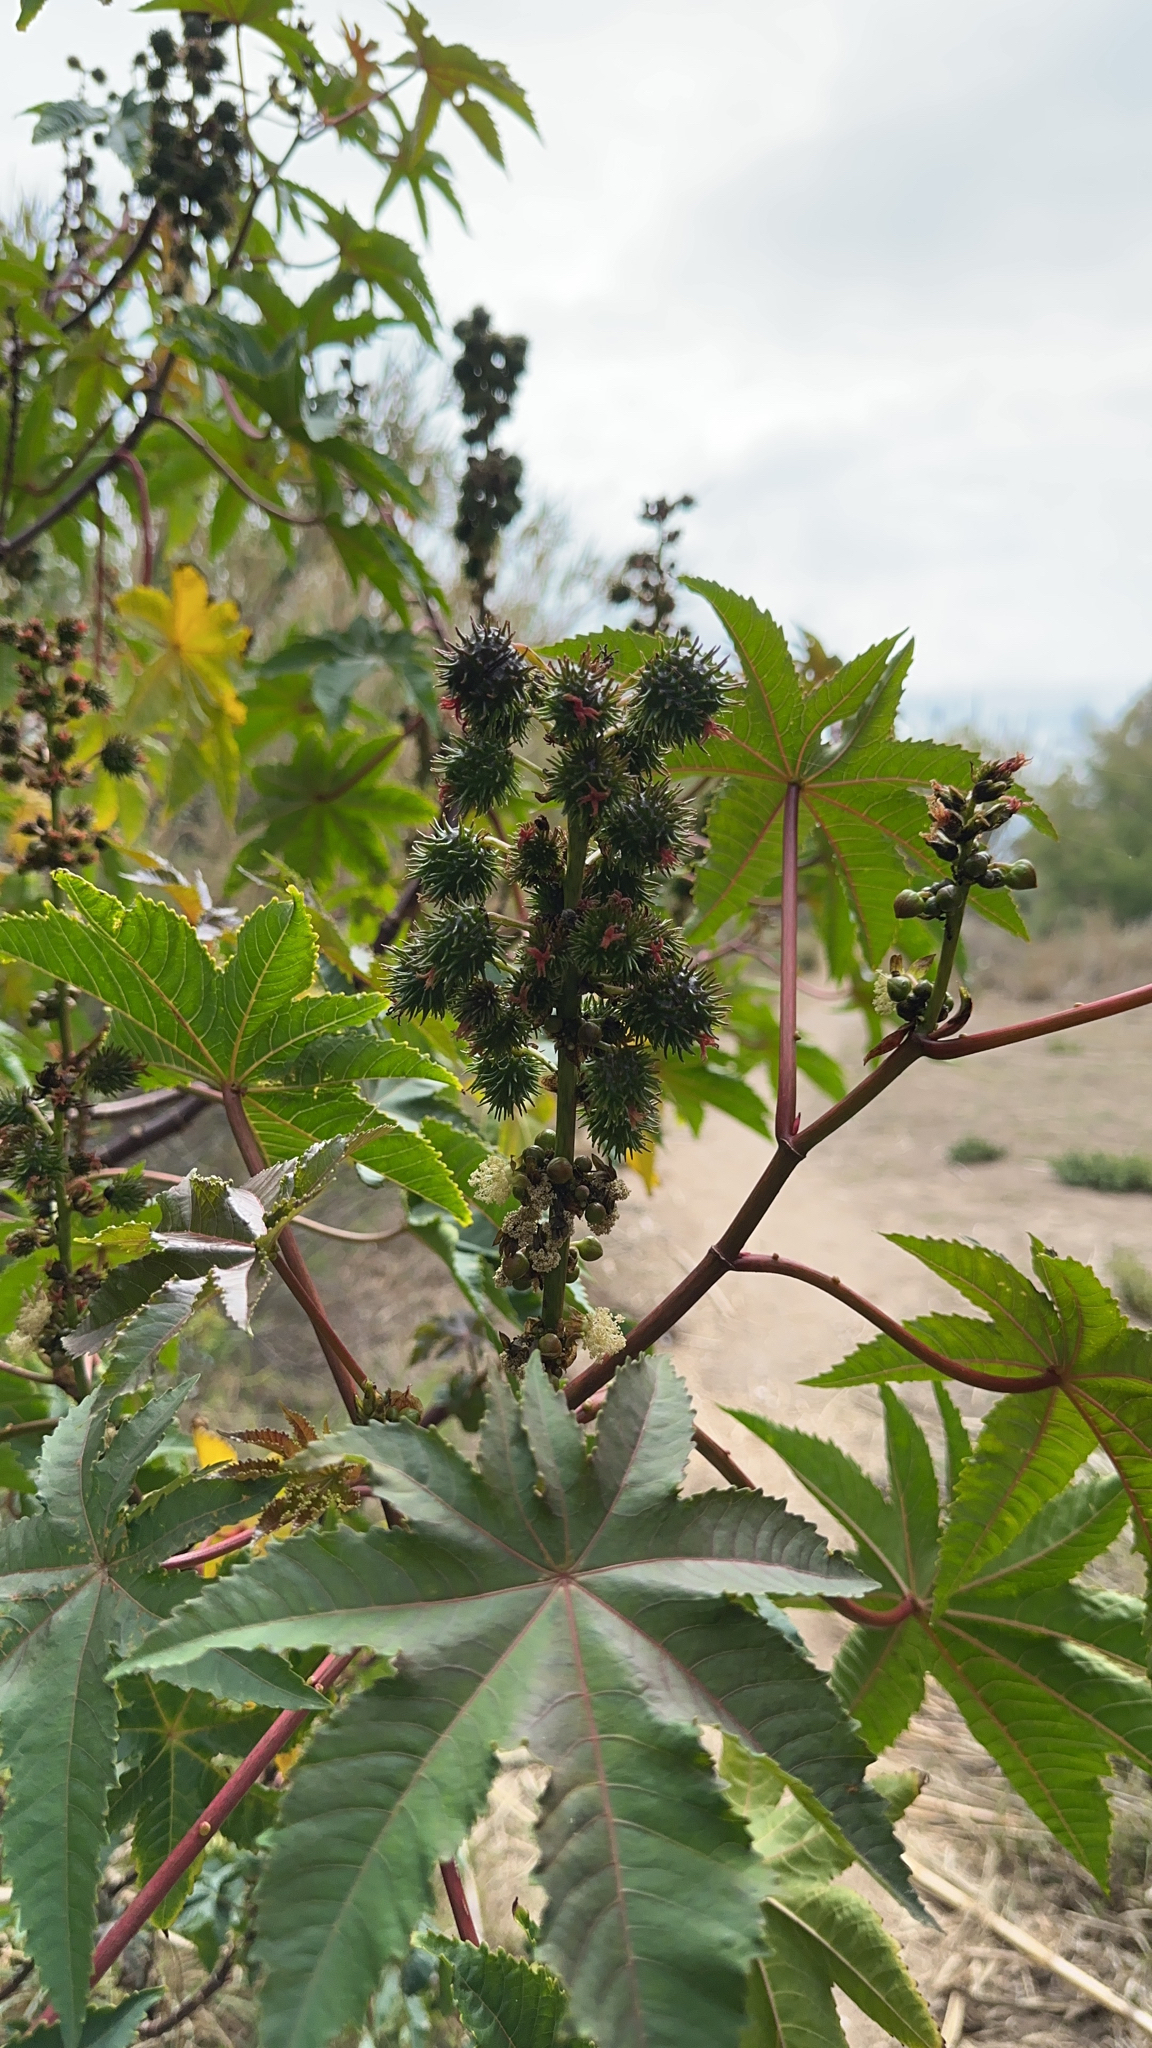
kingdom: Plantae
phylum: Tracheophyta
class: Magnoliopsida
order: Malpighiales
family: Euphorbiaceae
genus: Ricinus
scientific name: Ricinus communis
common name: Castor-oil-plant
